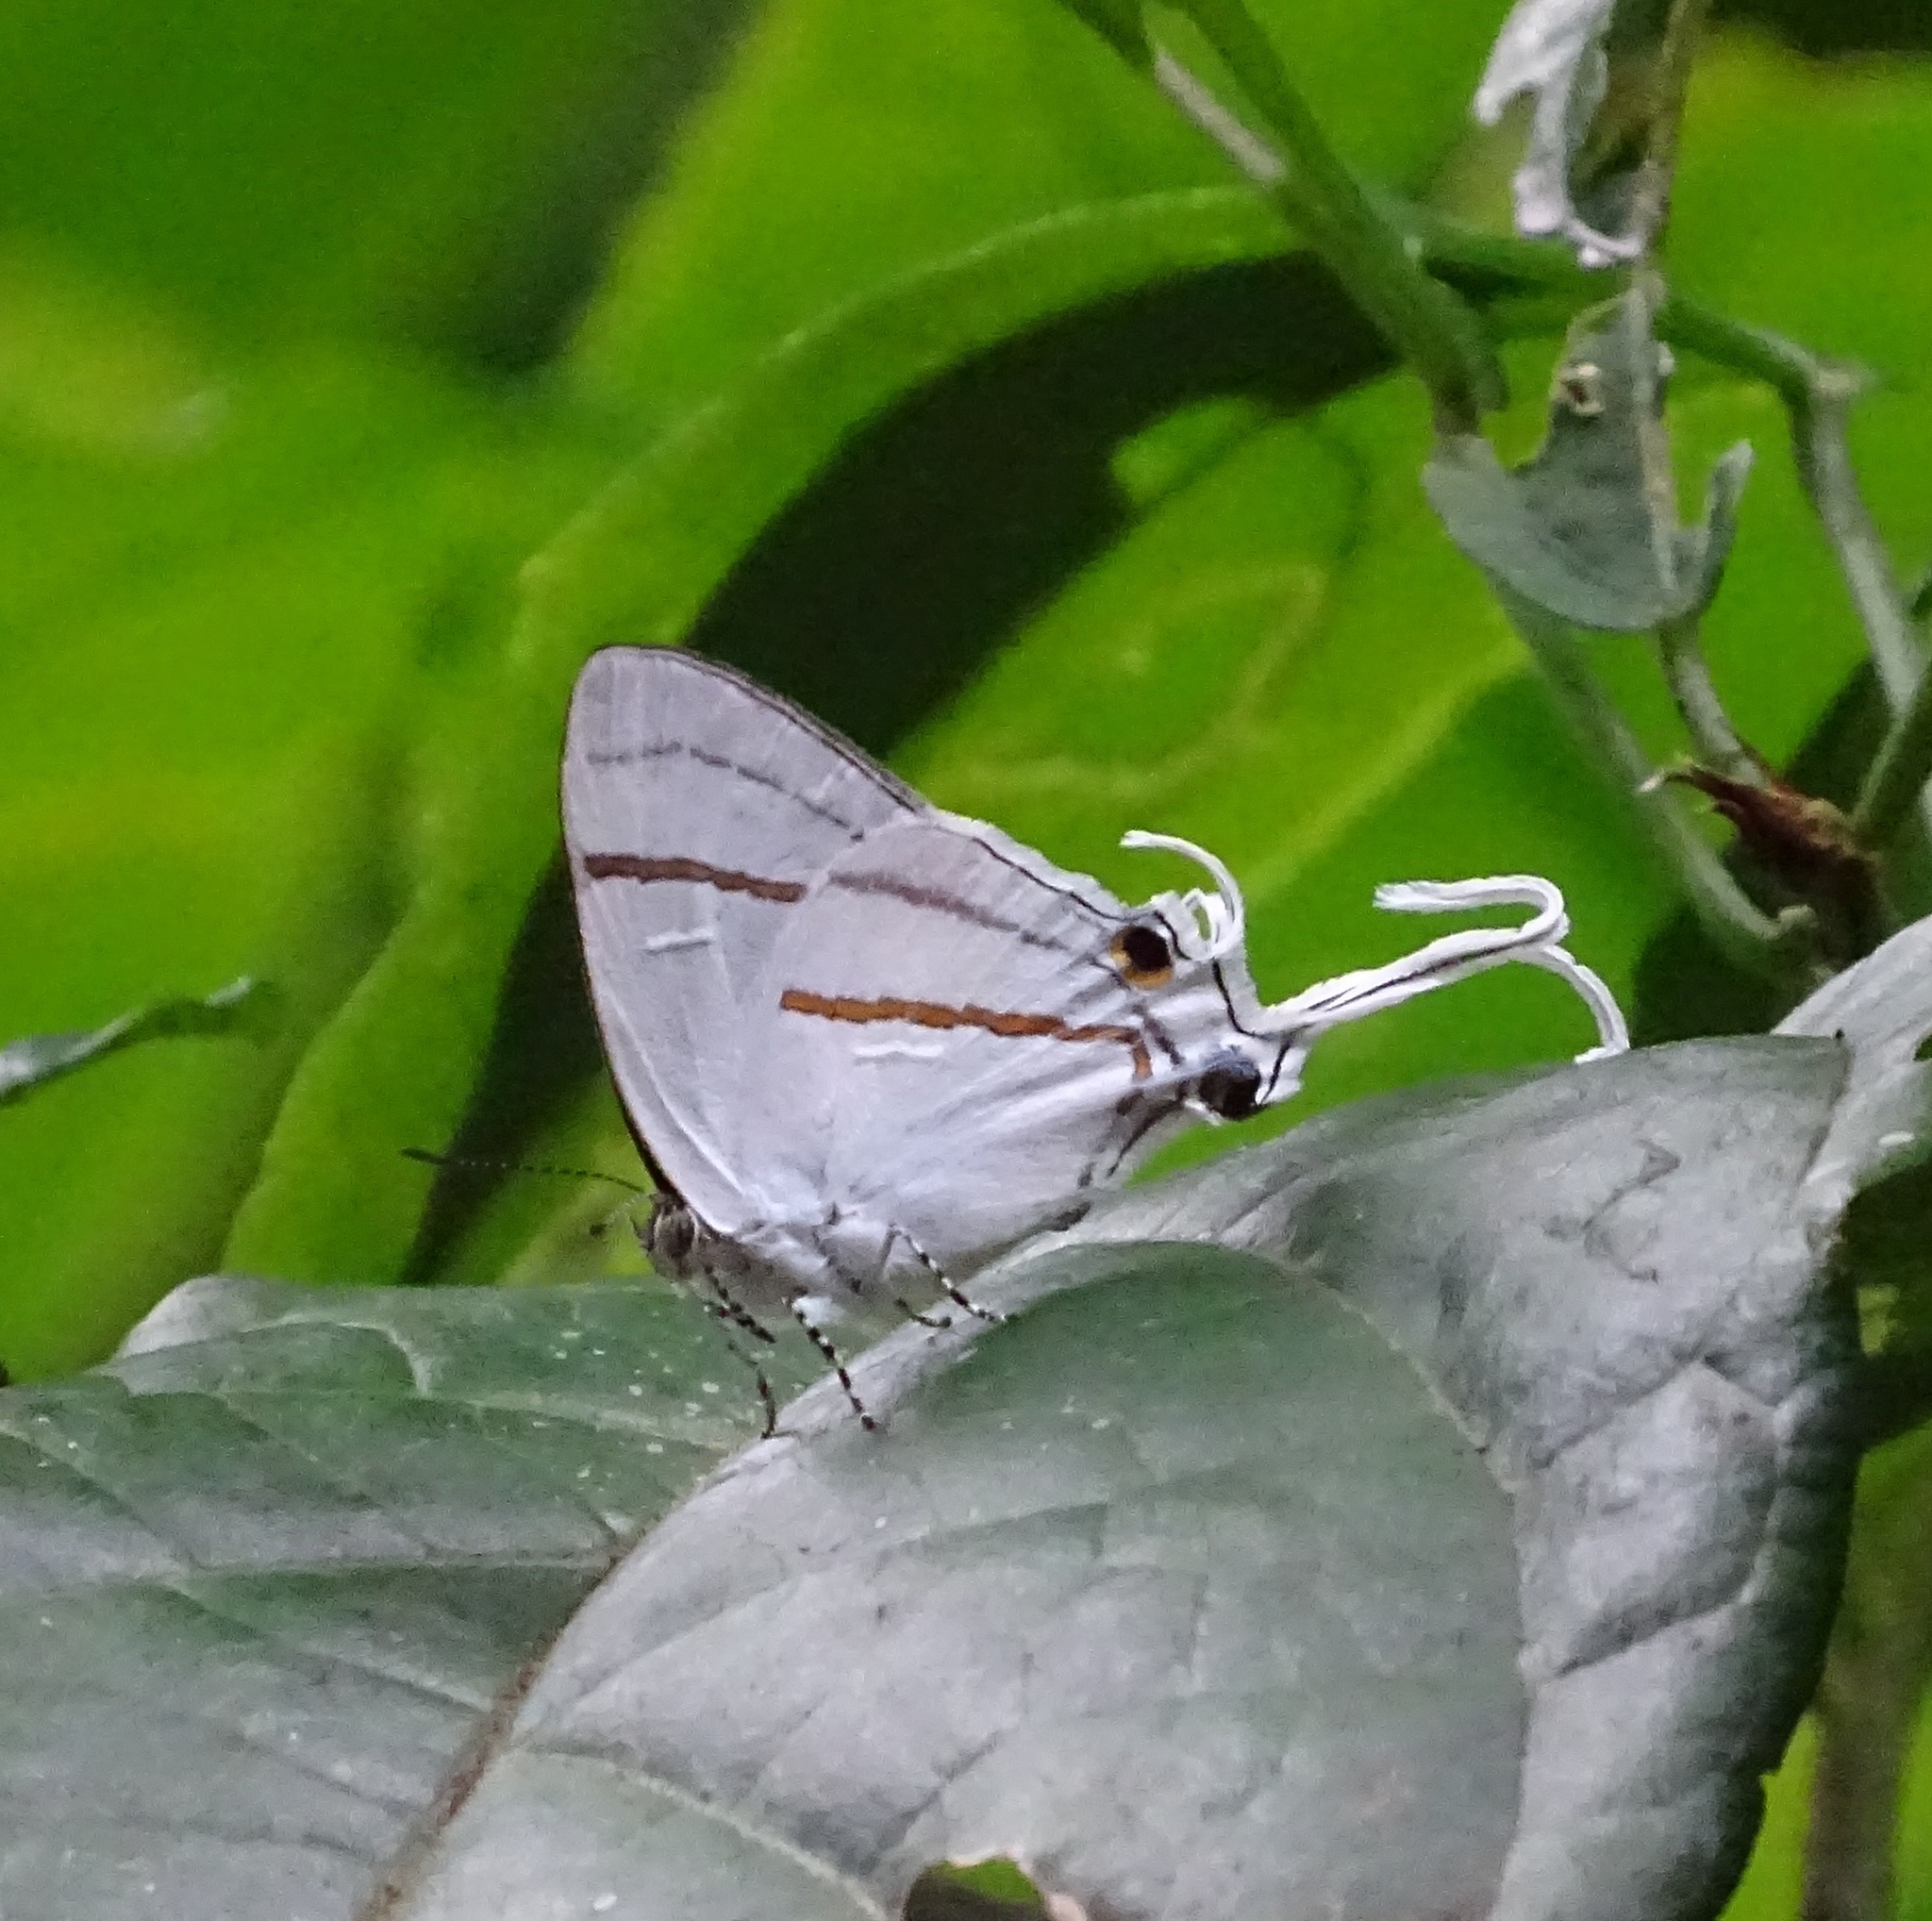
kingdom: Animalia
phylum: Arthropoda
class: Insecta
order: Lepidoptera
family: Lycaenidae
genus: Hypolycaena
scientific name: Hypolycaena hatita
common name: Common fairy hairstreak
